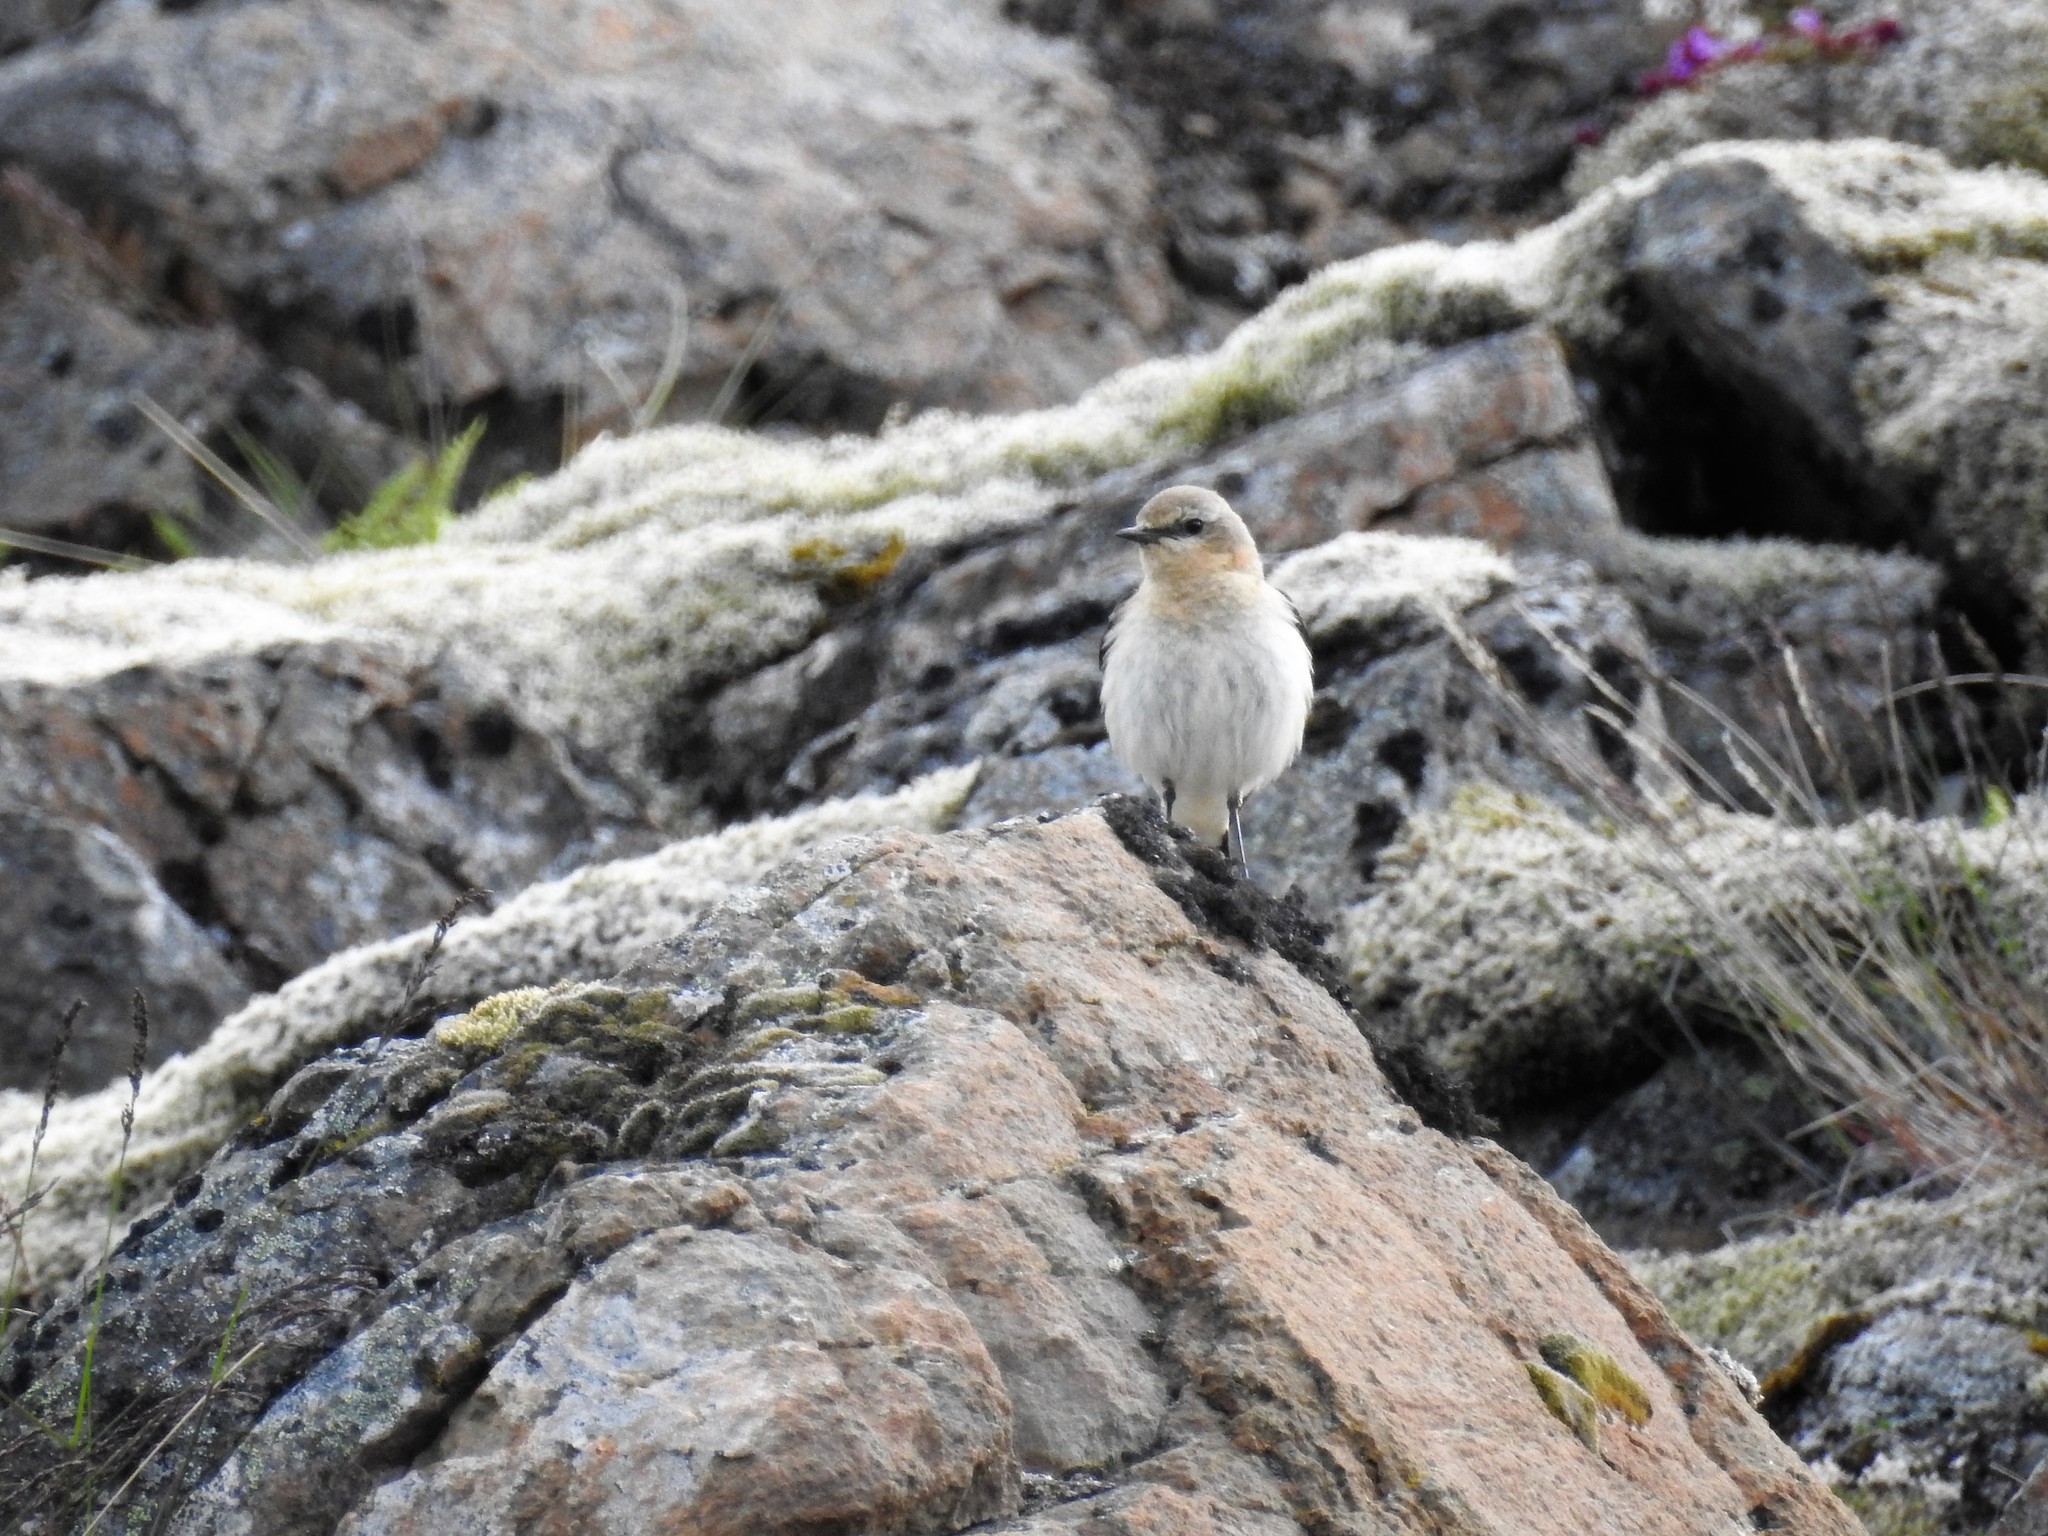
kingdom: Animalia
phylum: Chordata
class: Aves
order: Passeriformes
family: Muscicapidae
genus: Oenanthe
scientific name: Oenanthe oenanthe
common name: Northern wheatear
